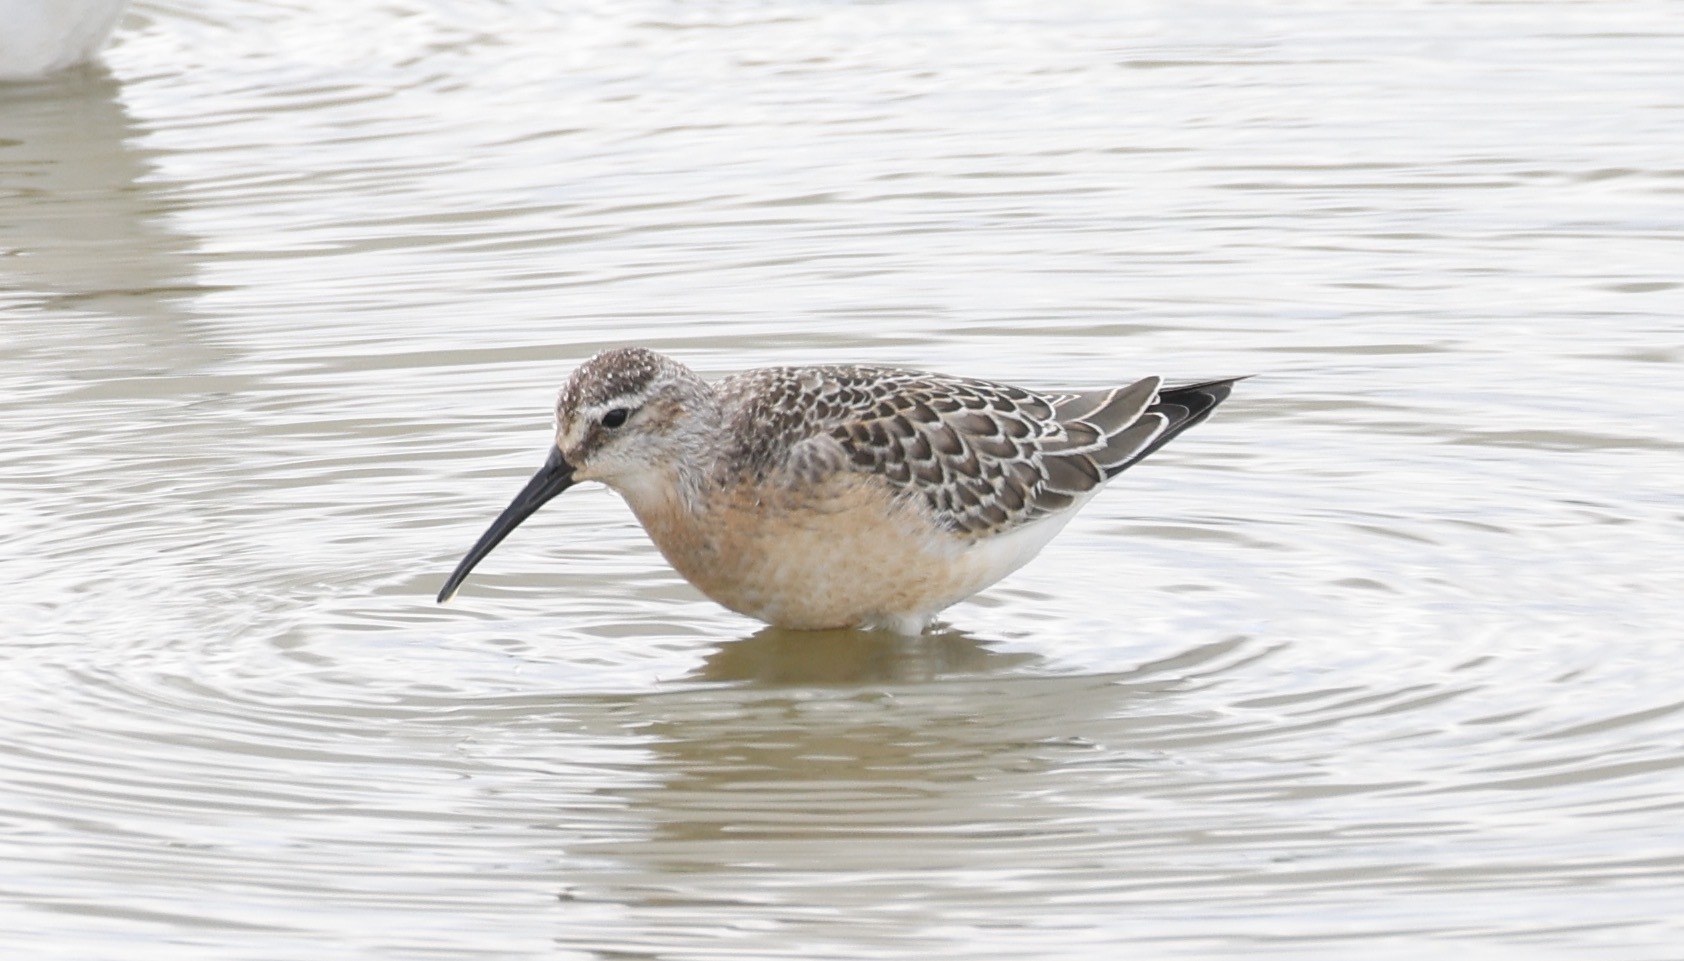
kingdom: Animalia
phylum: Chordata
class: Aves
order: Charadriiformes
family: Scolopacidae
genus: Calidris
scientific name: Calidris ferruginea
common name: Curlew sandpiper
